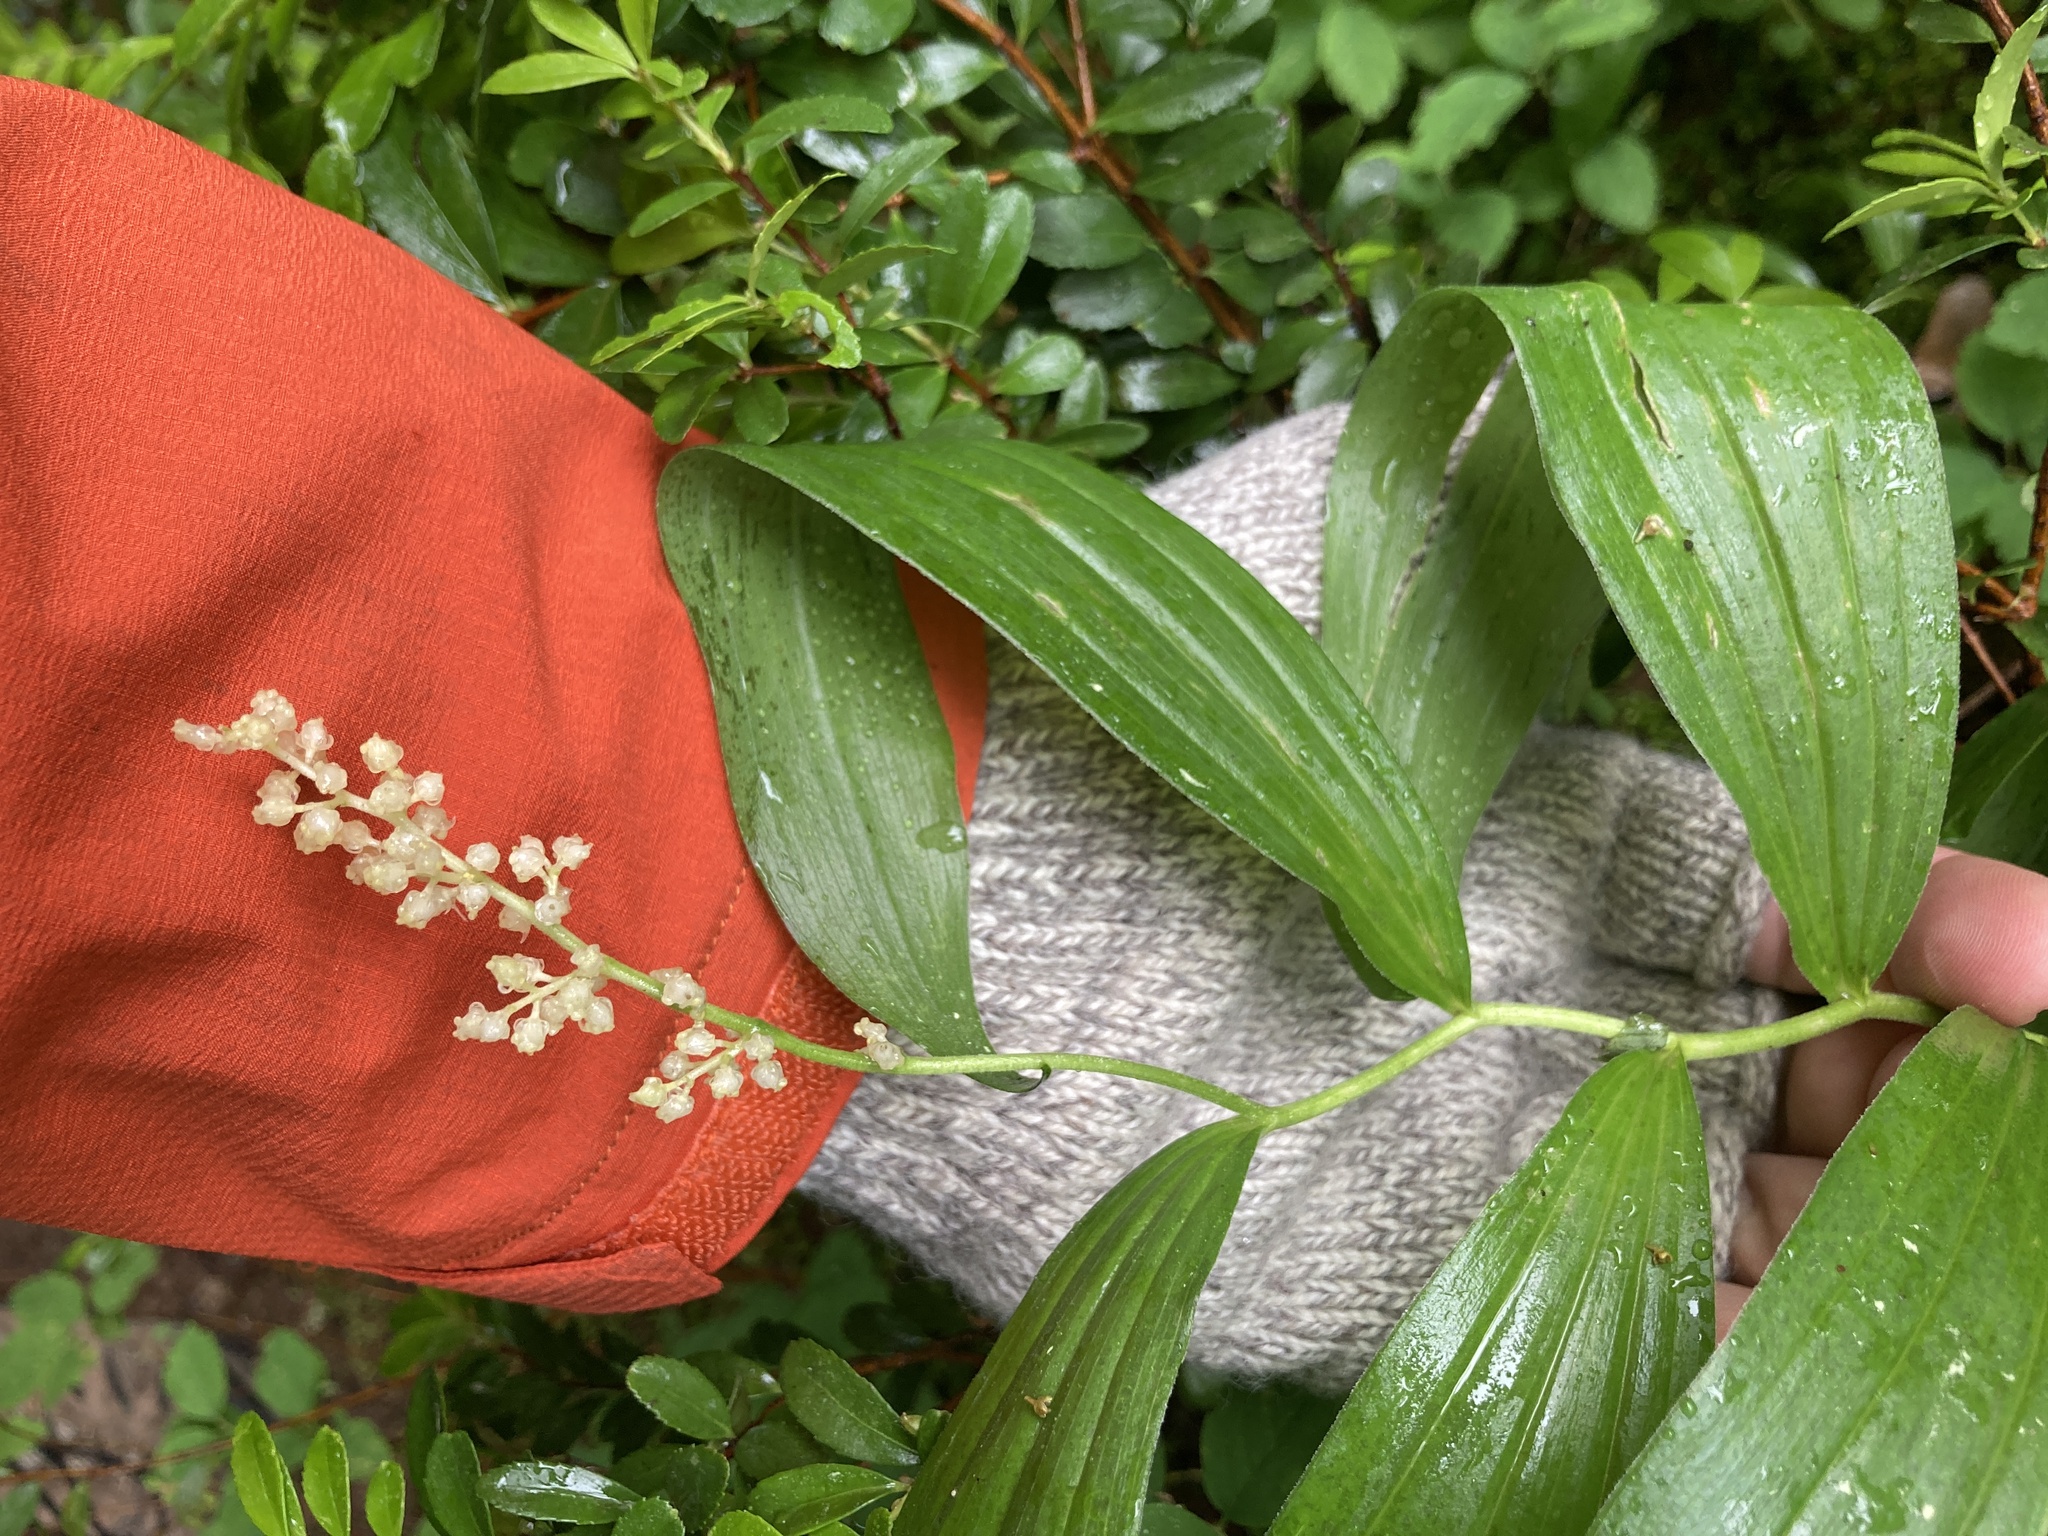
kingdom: Plantae
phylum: Tracheophyta
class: Liliopsida
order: Asparagales
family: Asparagaceae
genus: Maianthemum
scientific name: Maianthemum racemosum
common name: False spikenard
